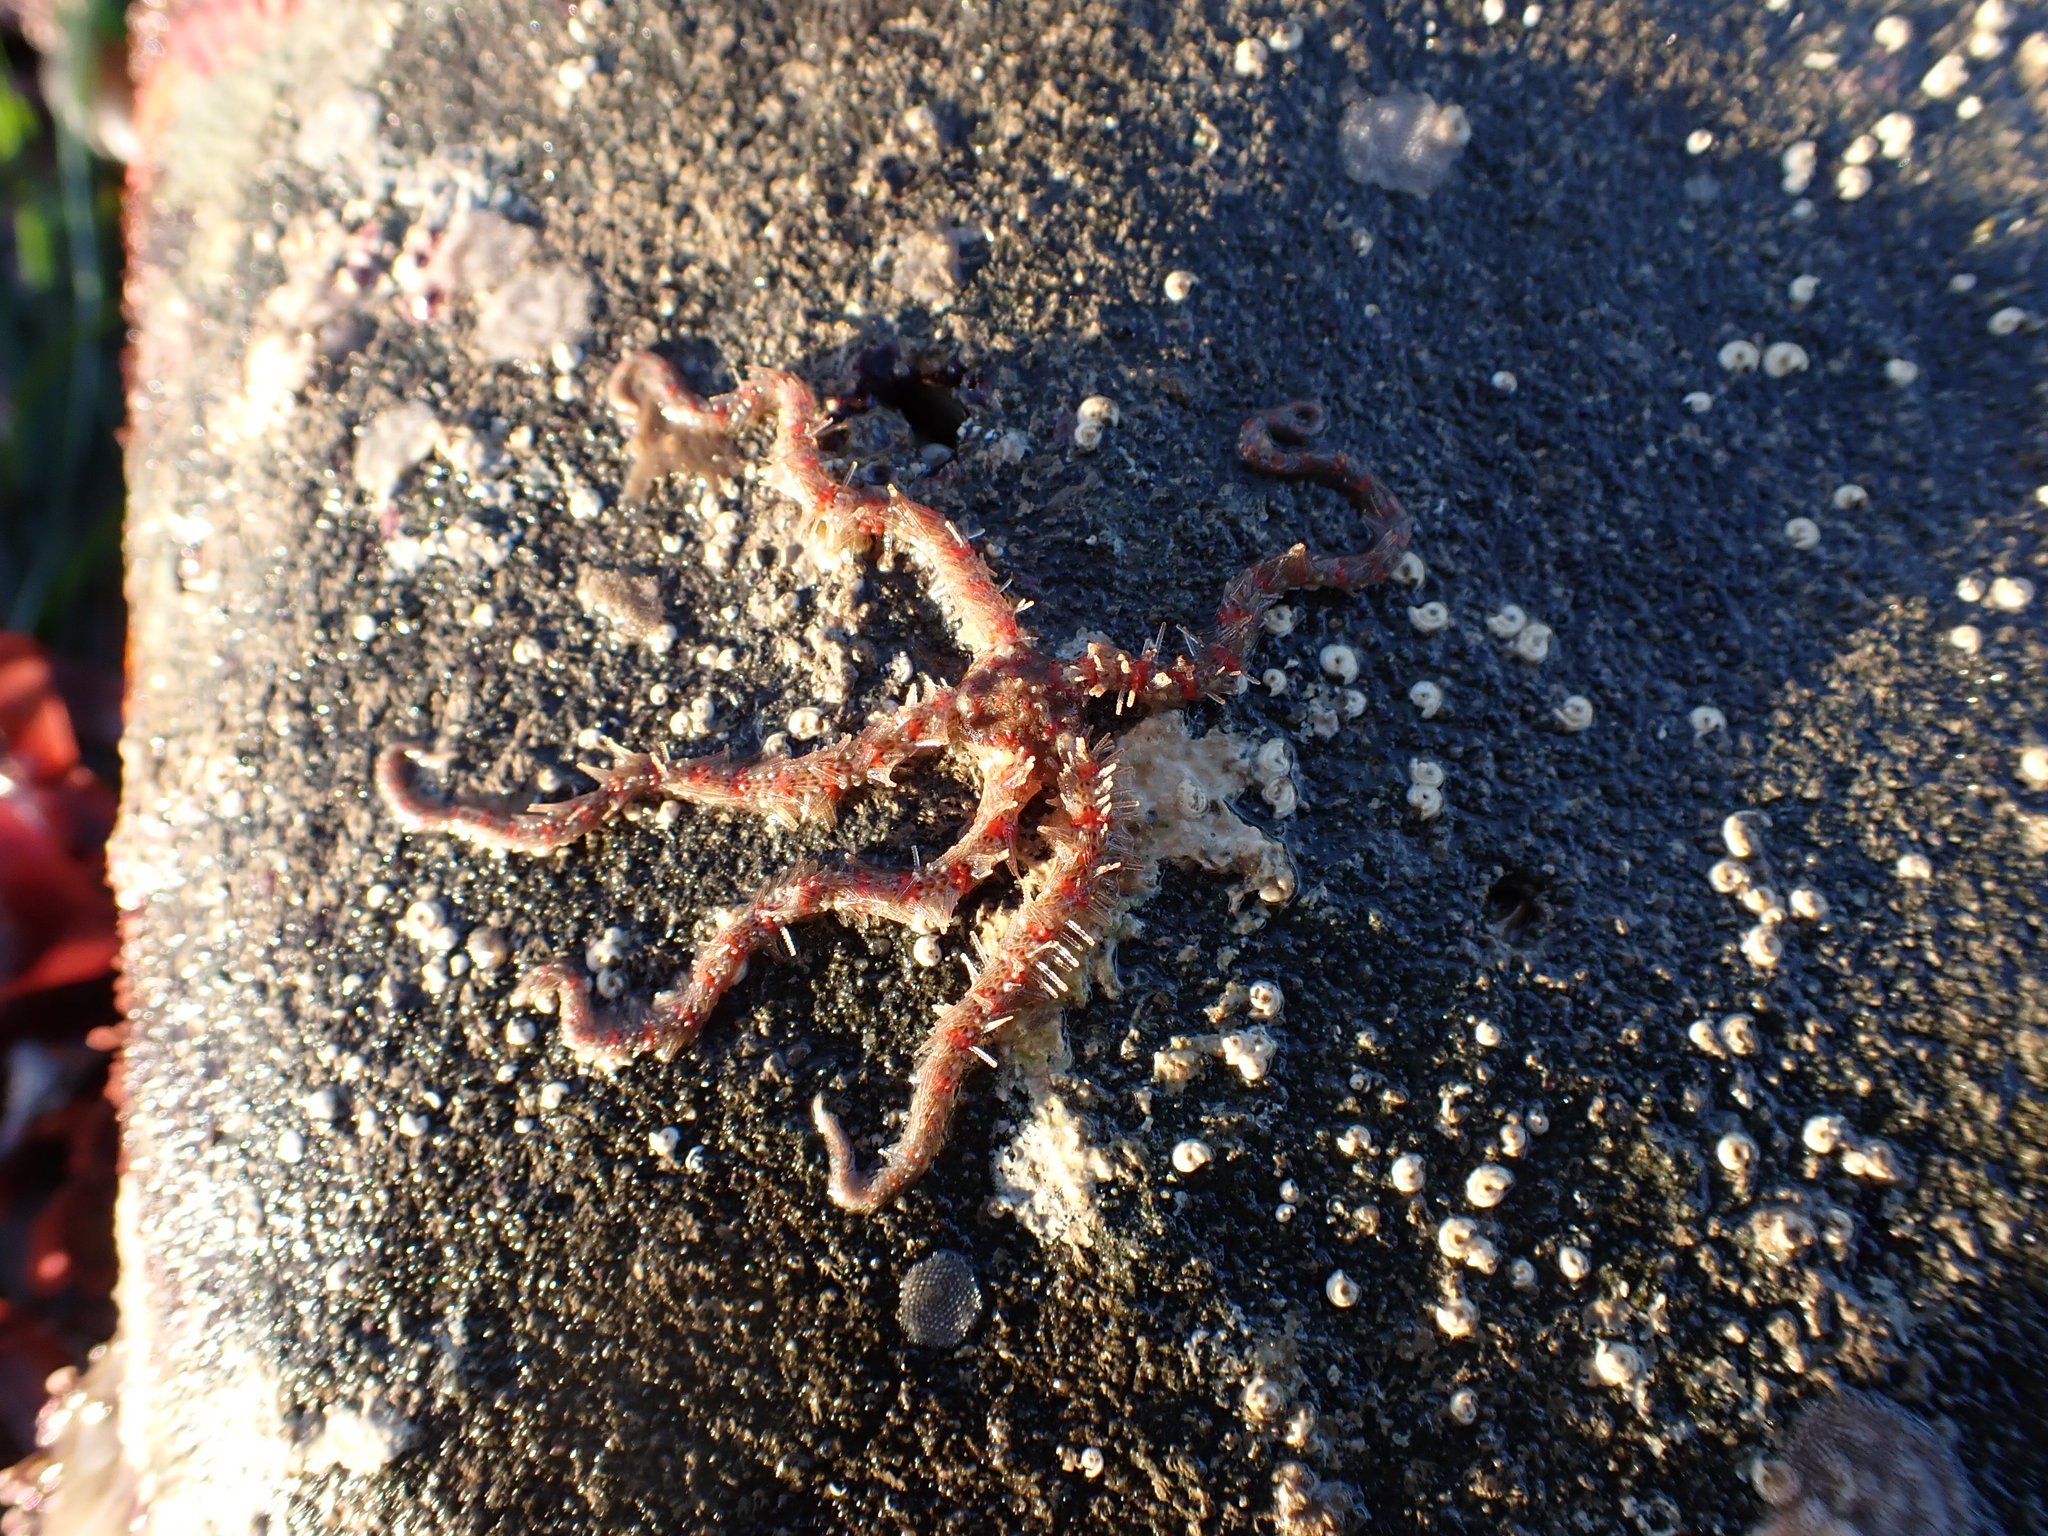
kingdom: Animalia
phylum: Echinodermata
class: Ophiuroidea
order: Amphilepidida
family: Ophiotrichidae
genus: Ophiothrix
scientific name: Ophiothrix spiculata
